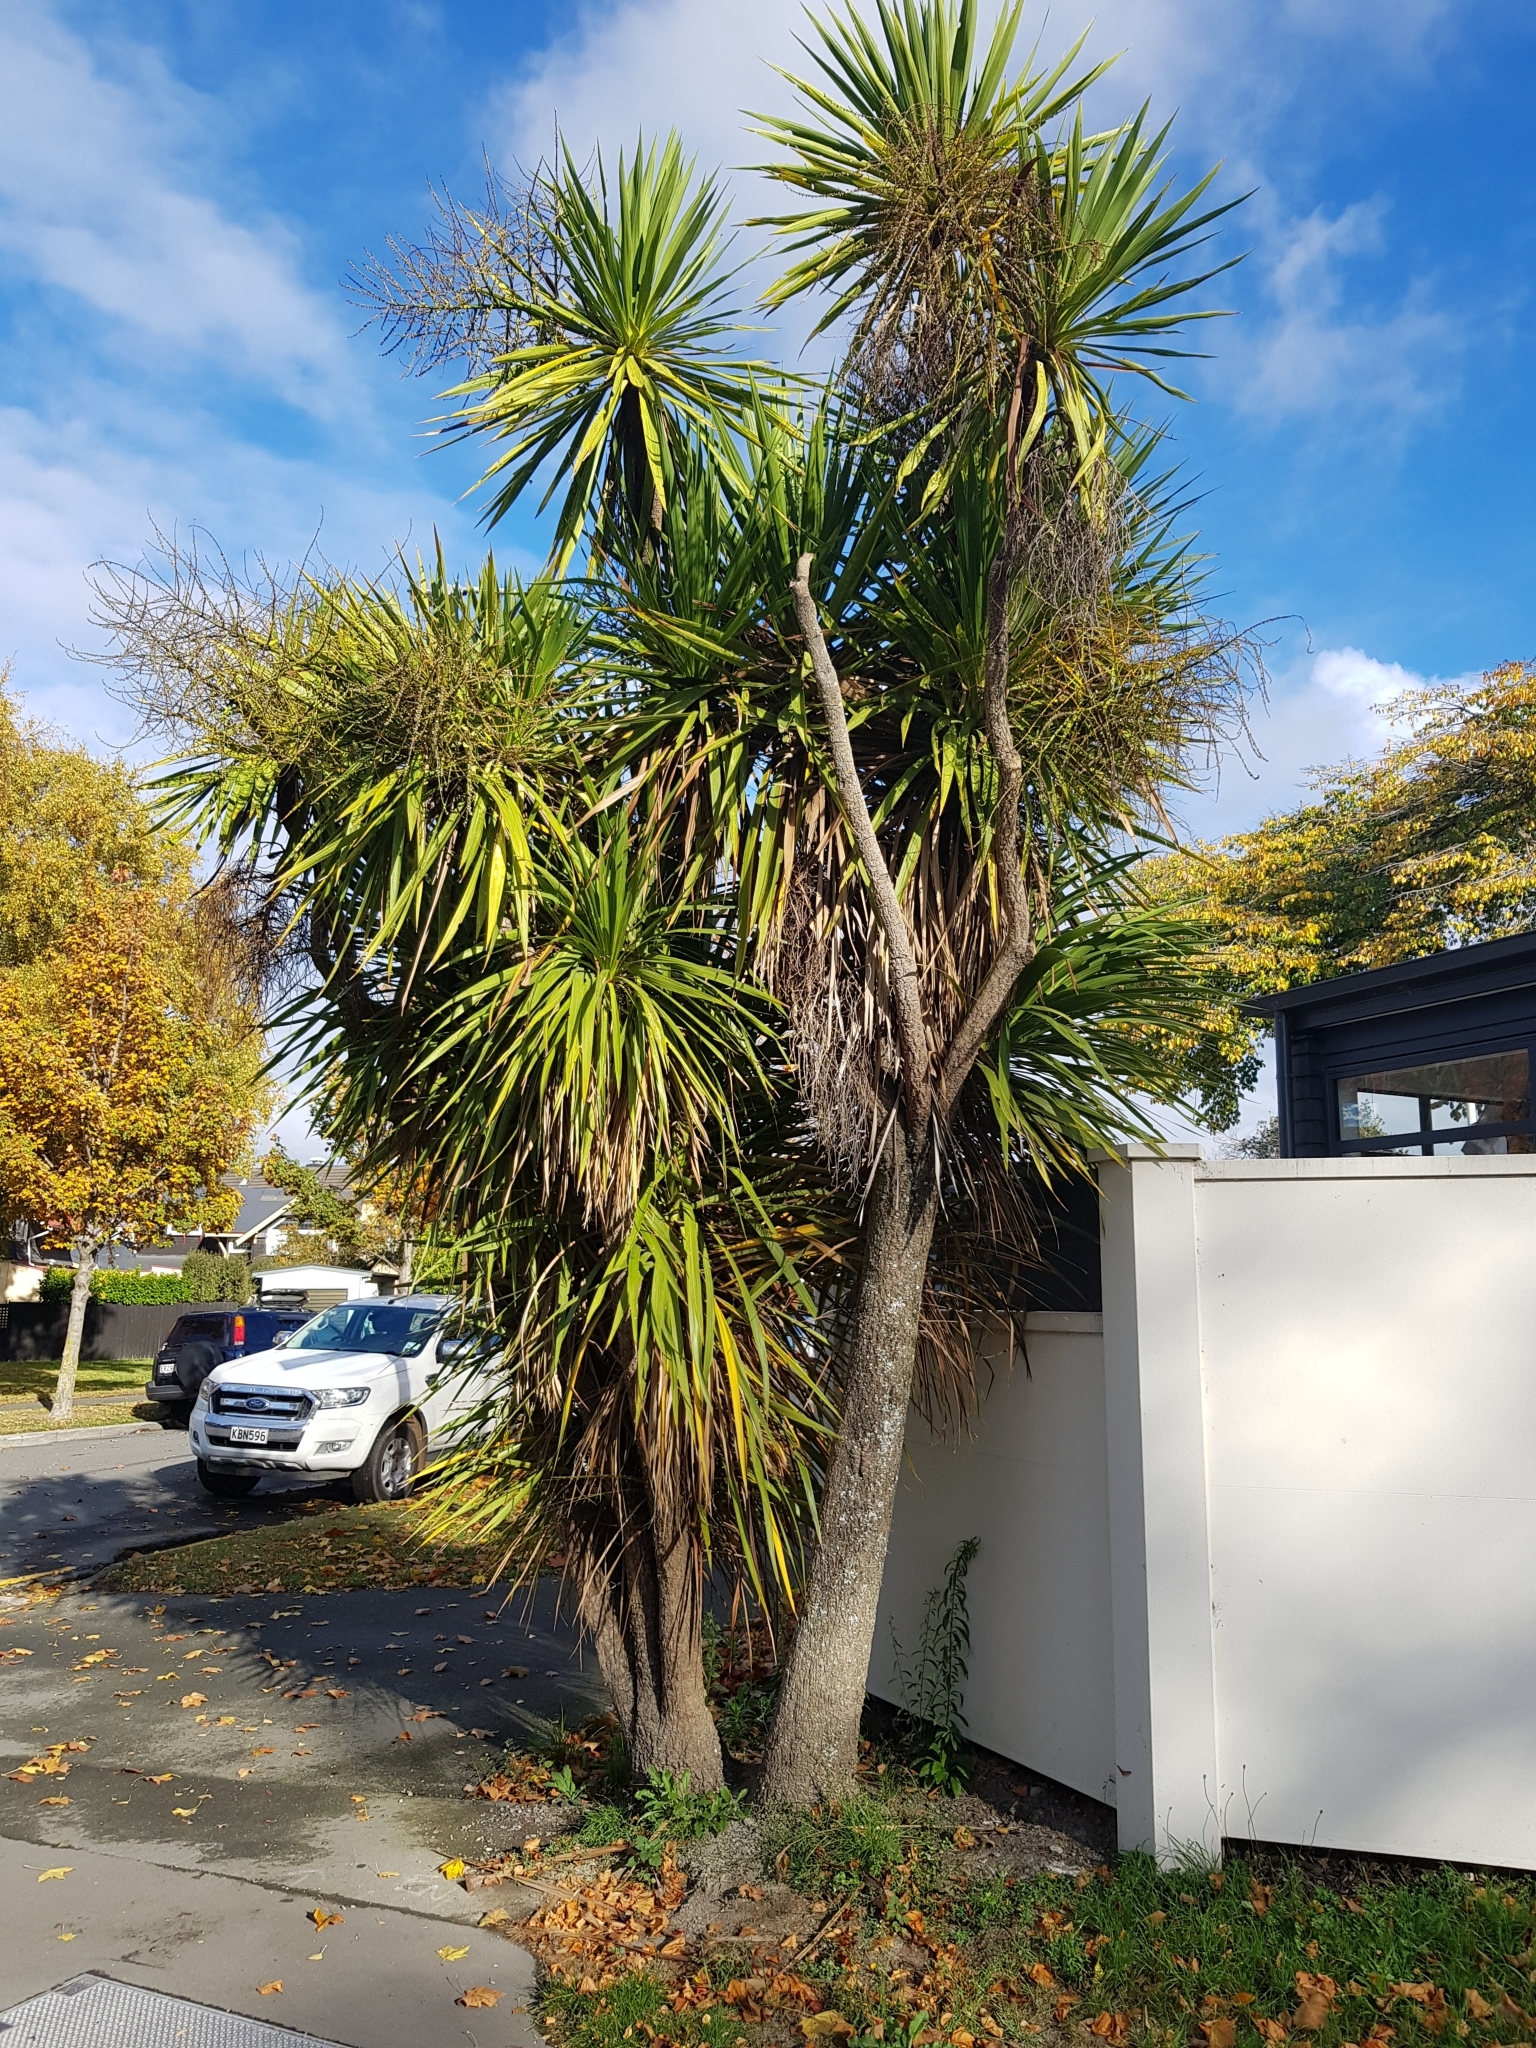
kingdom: Plantae
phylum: Tracheophyta
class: Liliopsida
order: Asparagales
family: Asparagaceae
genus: Cordyline
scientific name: Cordyline australis
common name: Cabbage-palm
